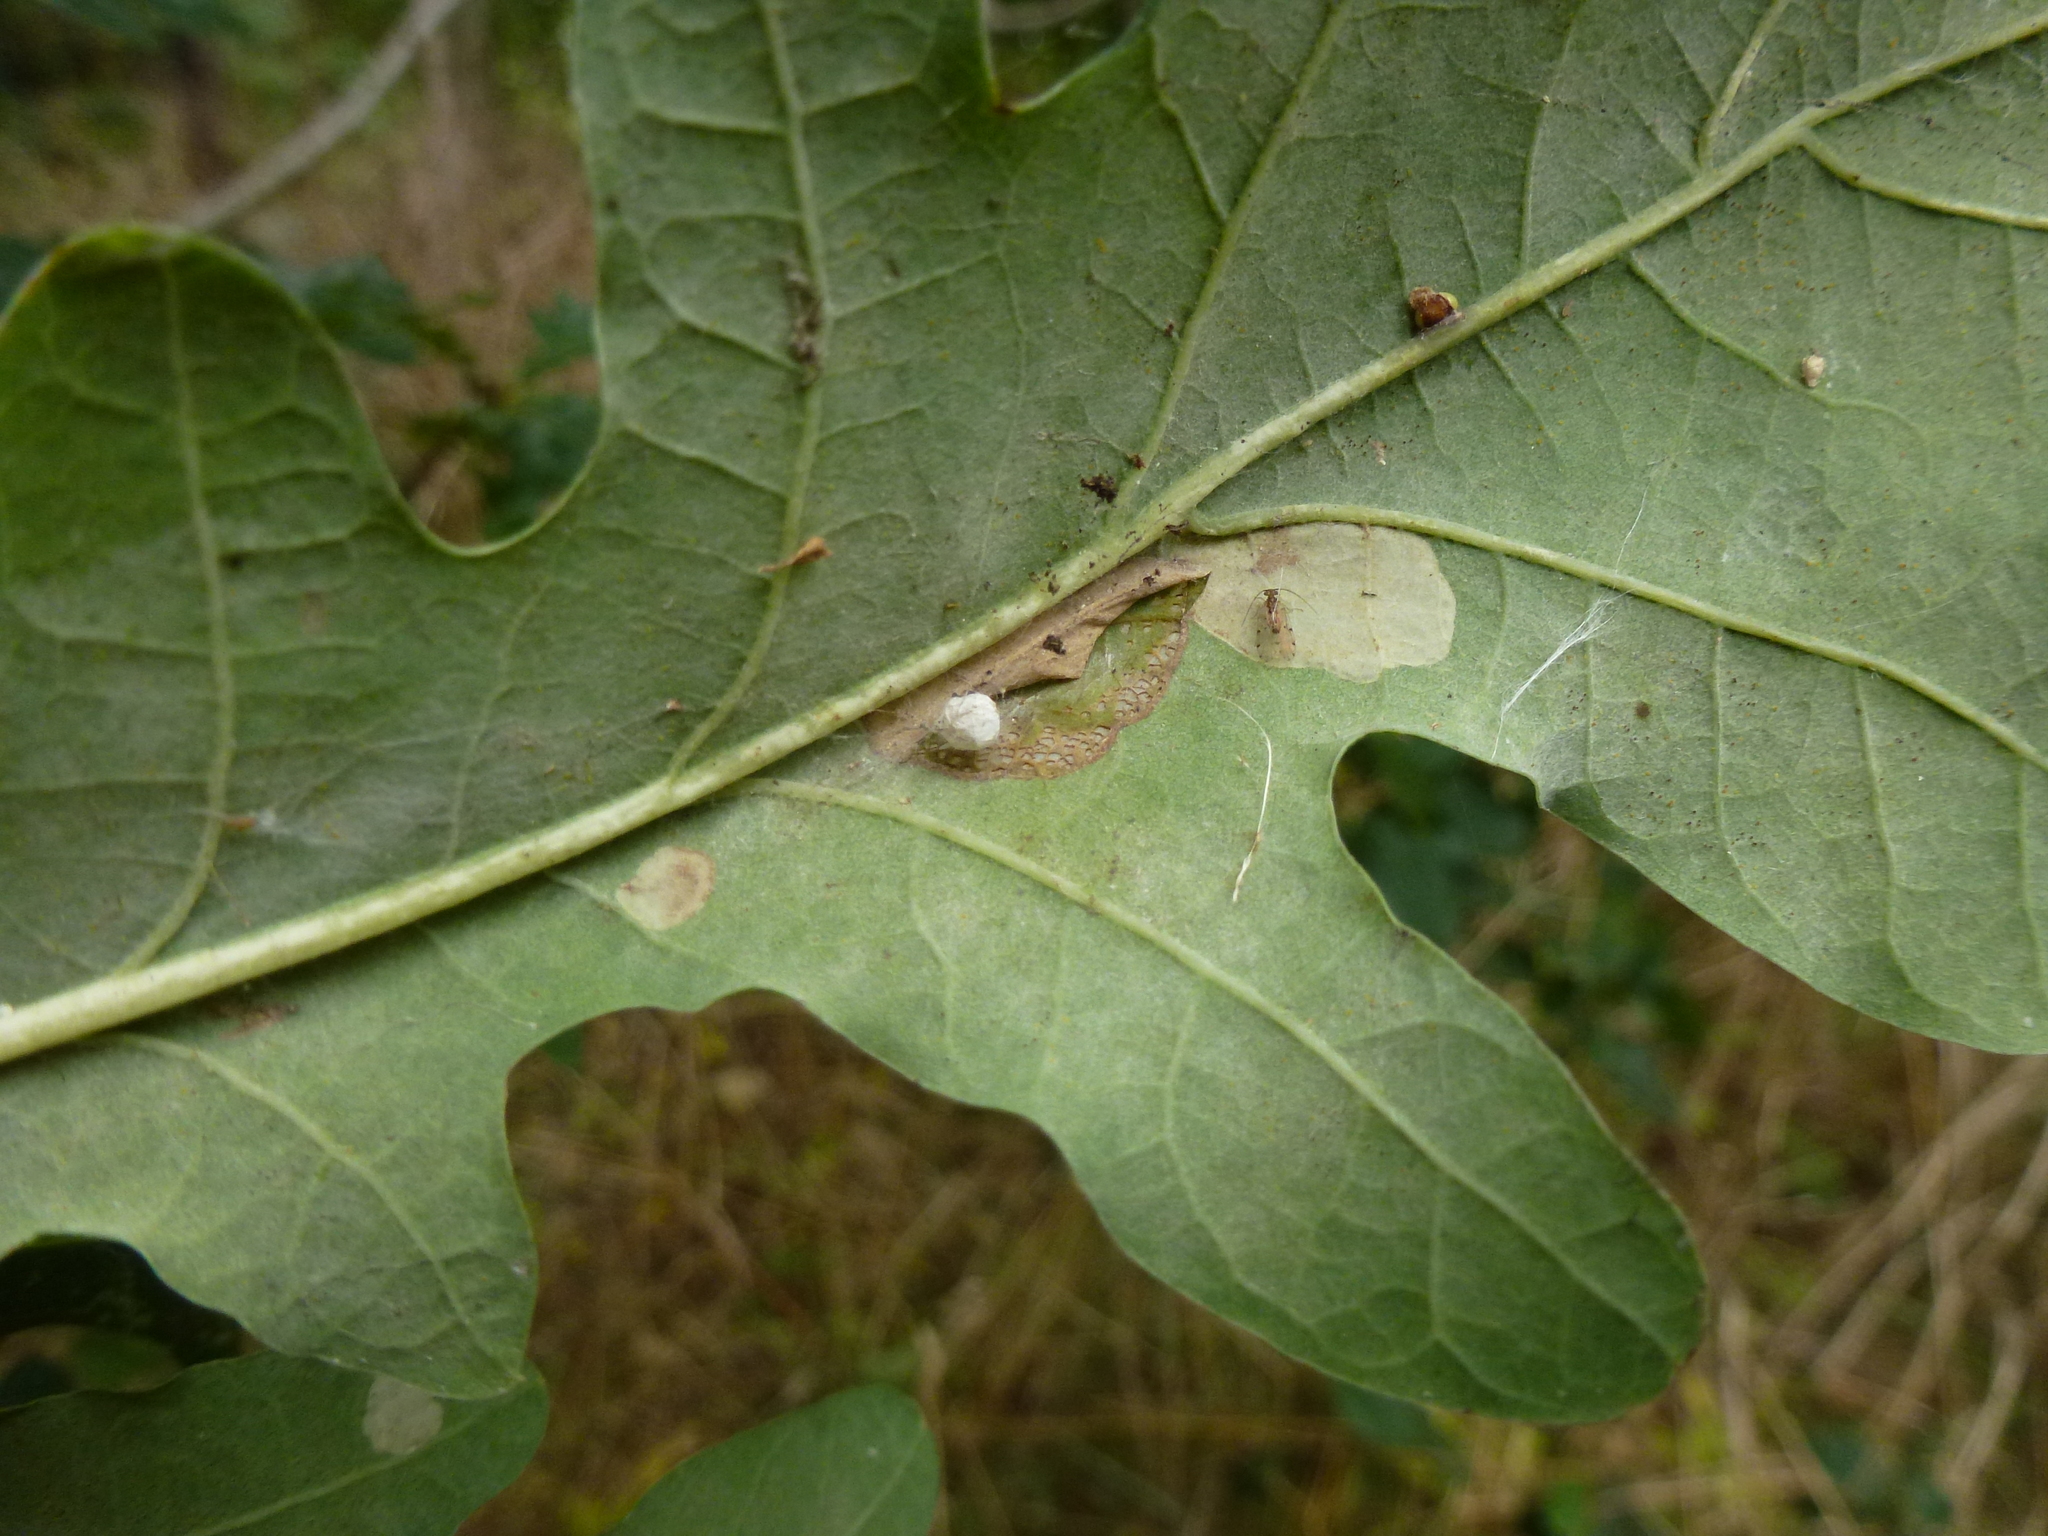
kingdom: Animalia
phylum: Arthropoda
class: Arachnida
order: Araneae
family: Theridiidae
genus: Paidiscura
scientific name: Paidiscura pallens
